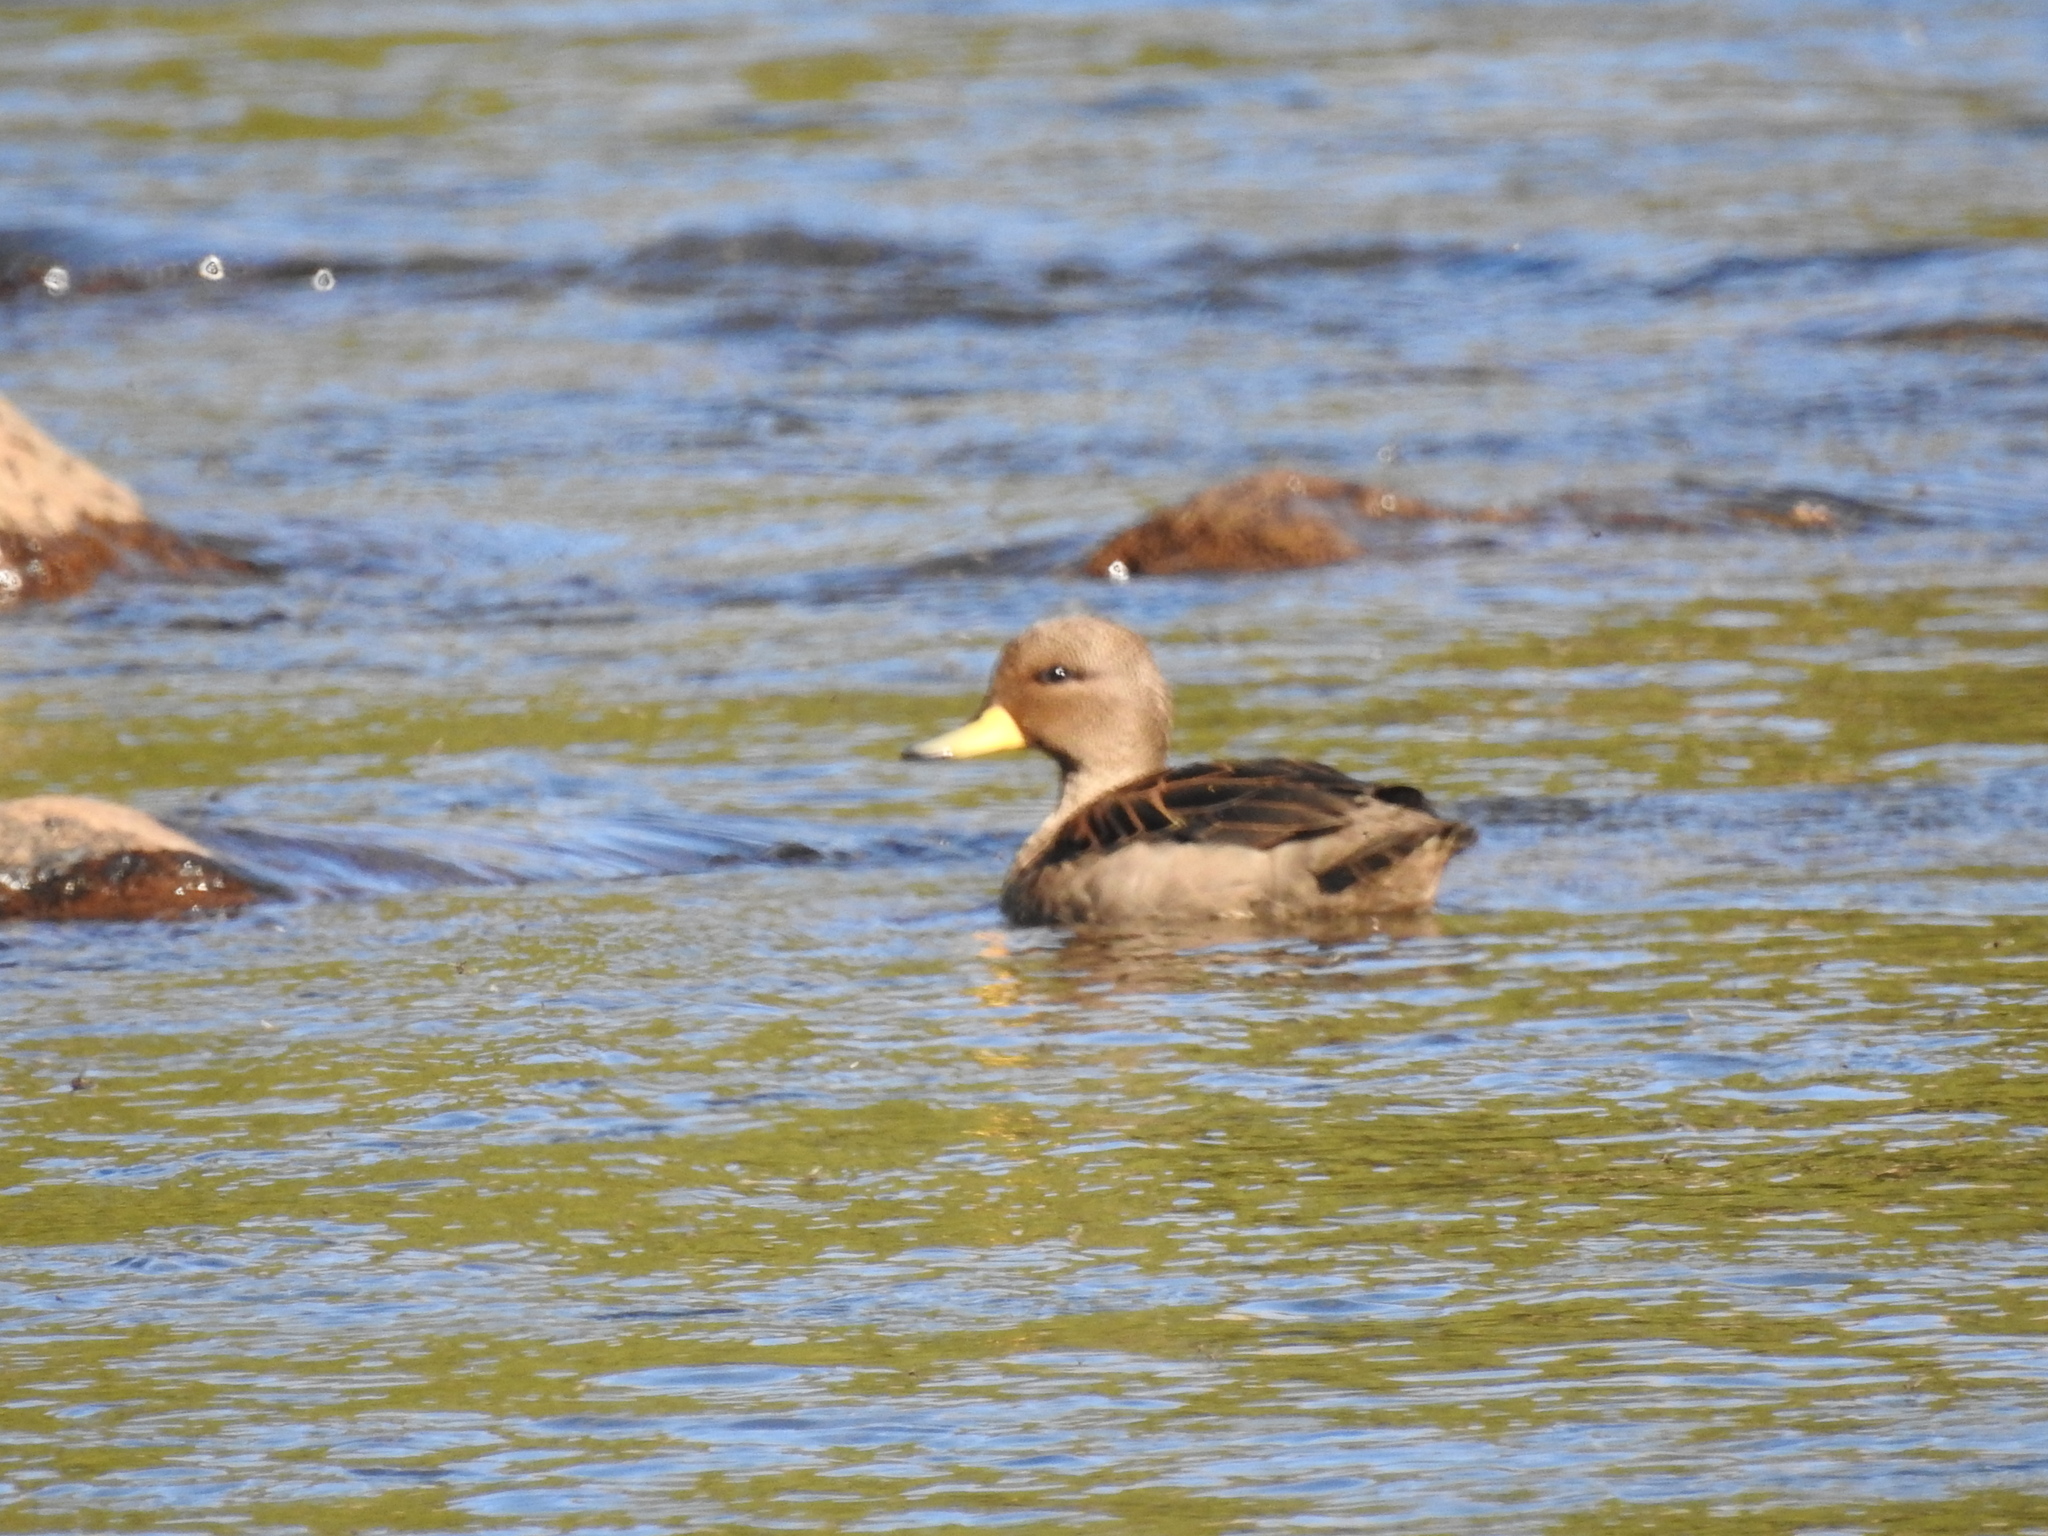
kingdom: Animalia
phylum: Chordata
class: Aves
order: Anseriformes
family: Anatidae
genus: Anas
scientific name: Anas flavirostris
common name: Yellow-billed teal
